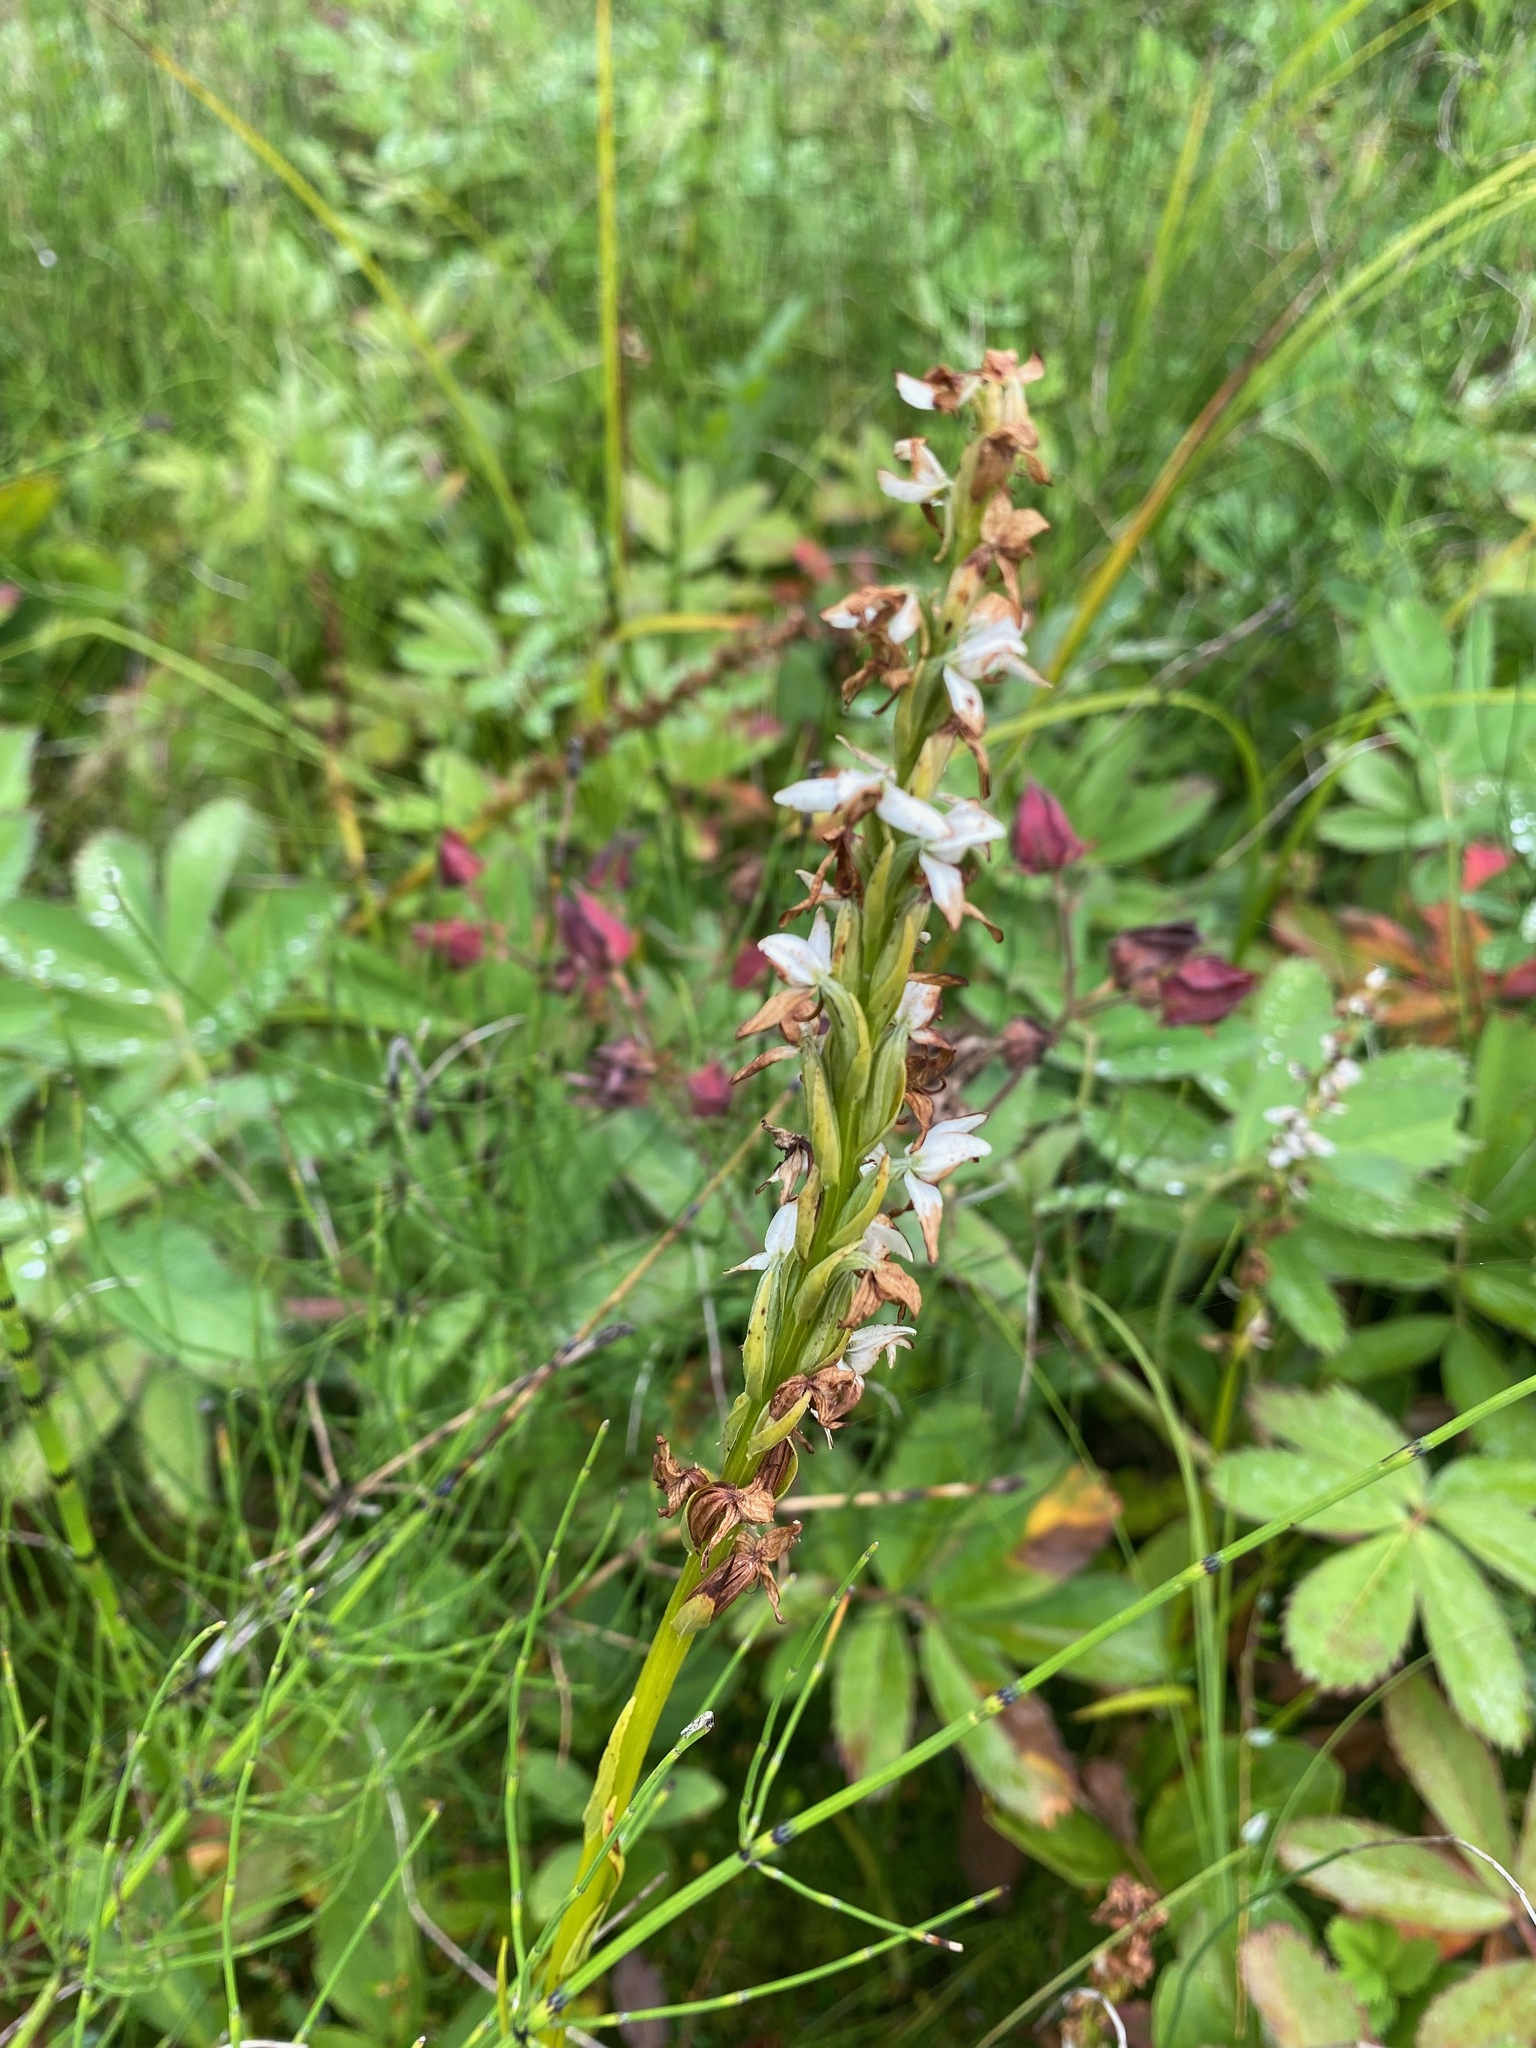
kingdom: Plantae
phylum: Tracheophyta
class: Liliopsida
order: Asparagales
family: Orchidaceae
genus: Platanthera
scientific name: Platanthera dilatata
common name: Bog candles
